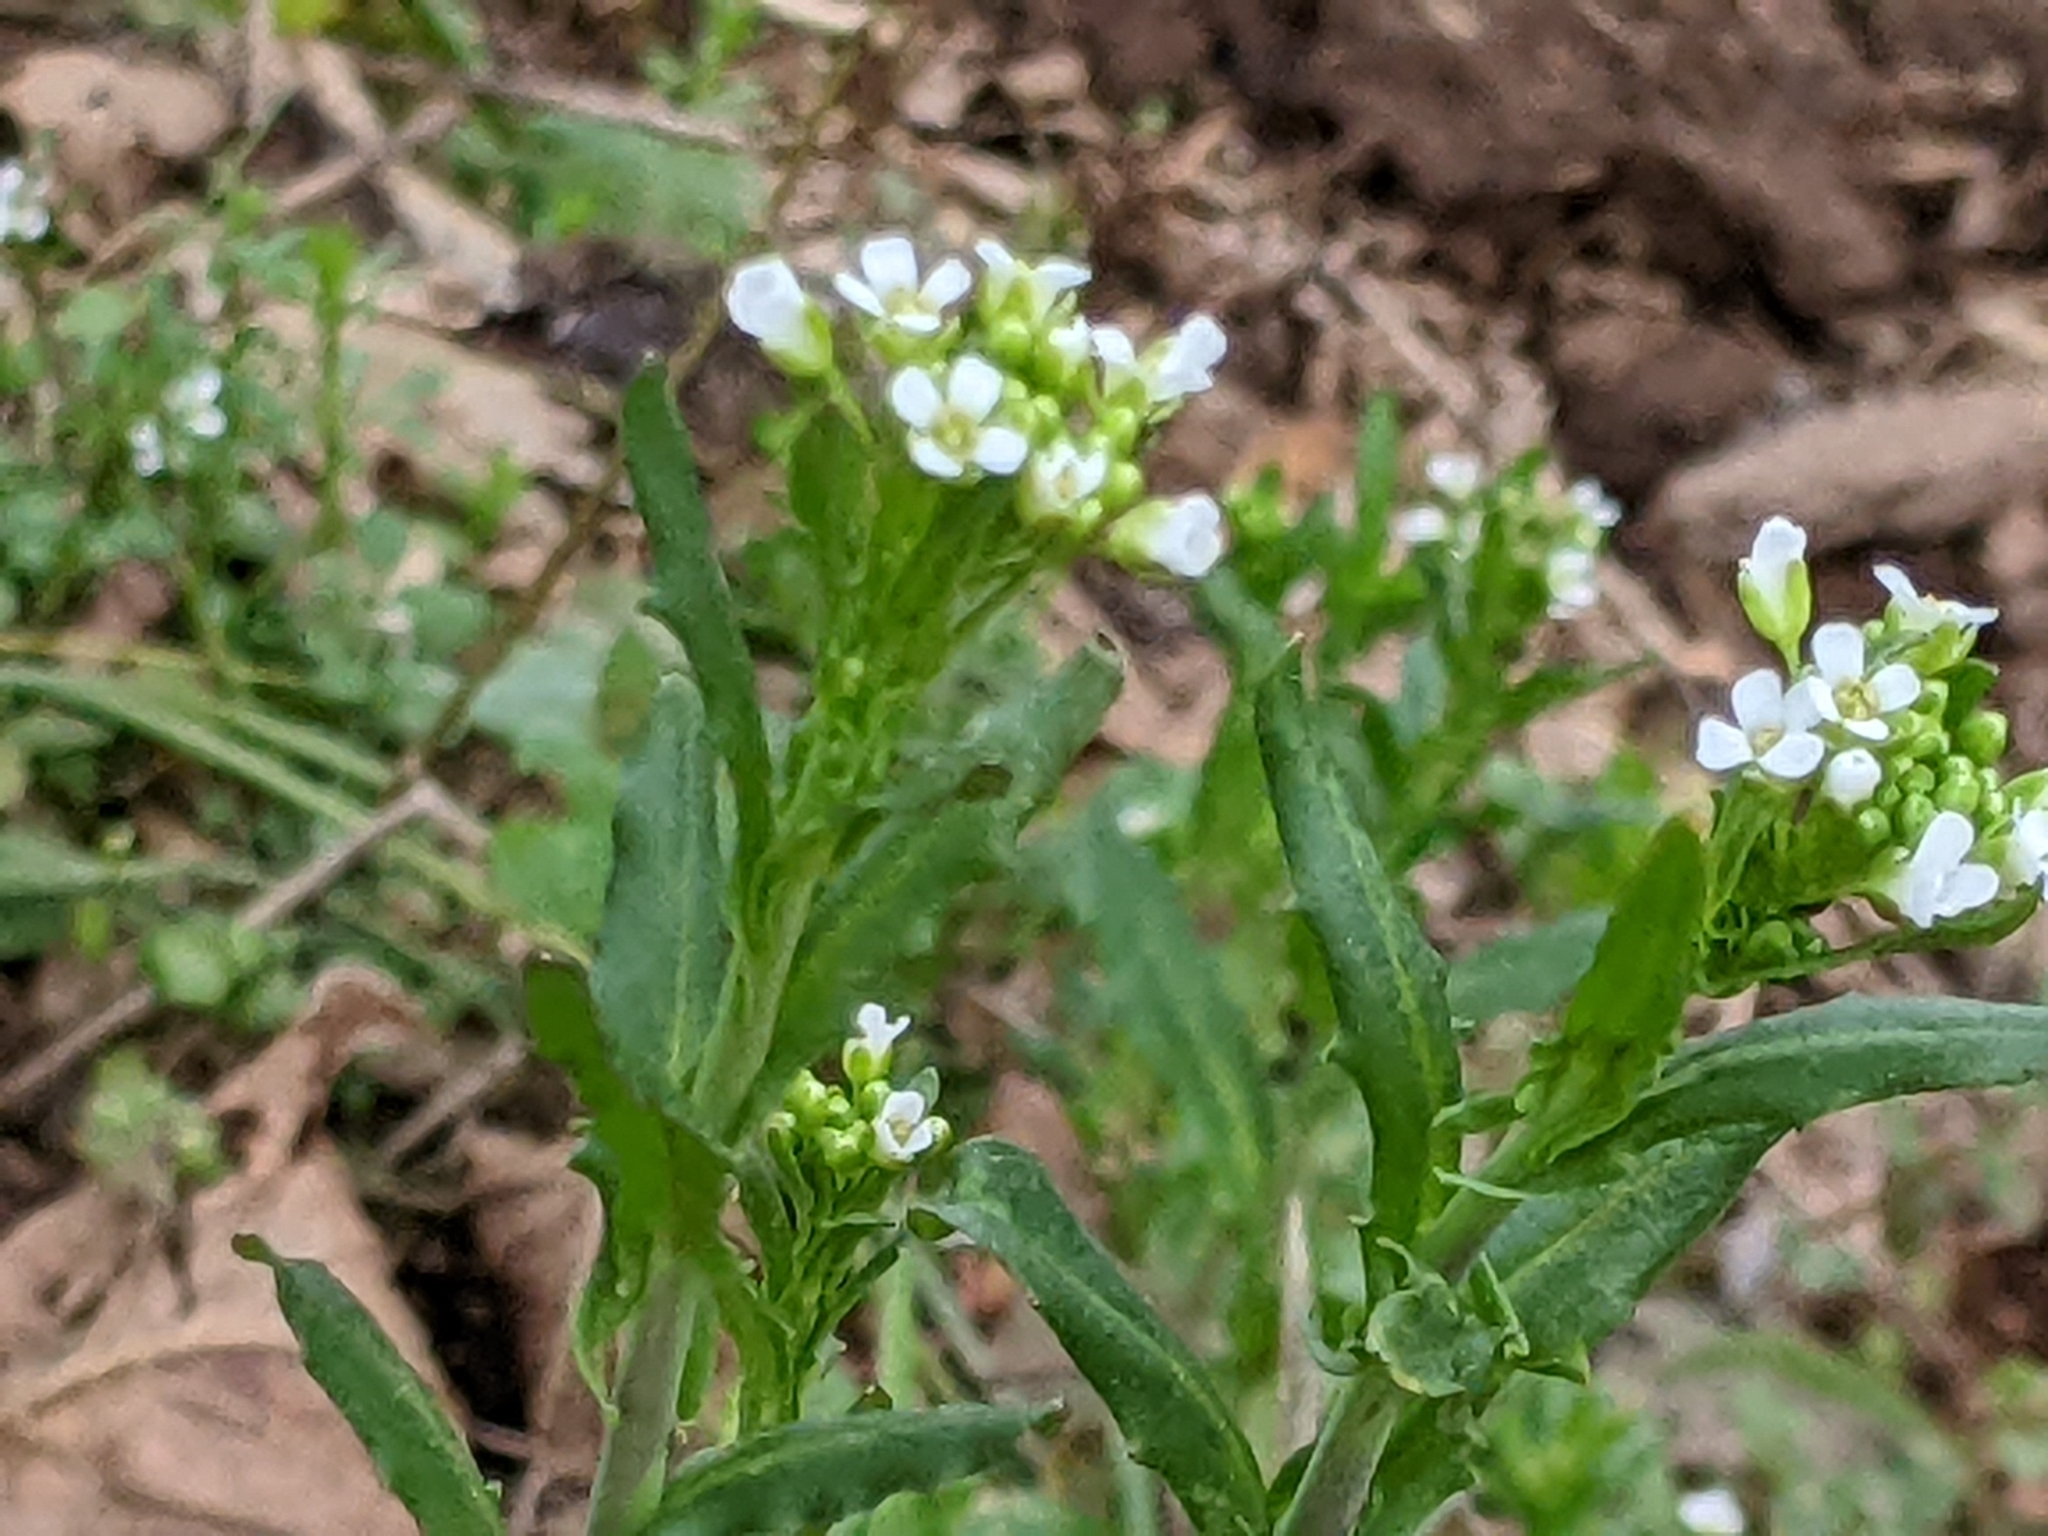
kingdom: Plantae
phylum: Tracheophyta
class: Magnoliopsida
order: Brassicales
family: Brassicaceae
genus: Mummenhoffia
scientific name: Mummenhoffia alliacea
